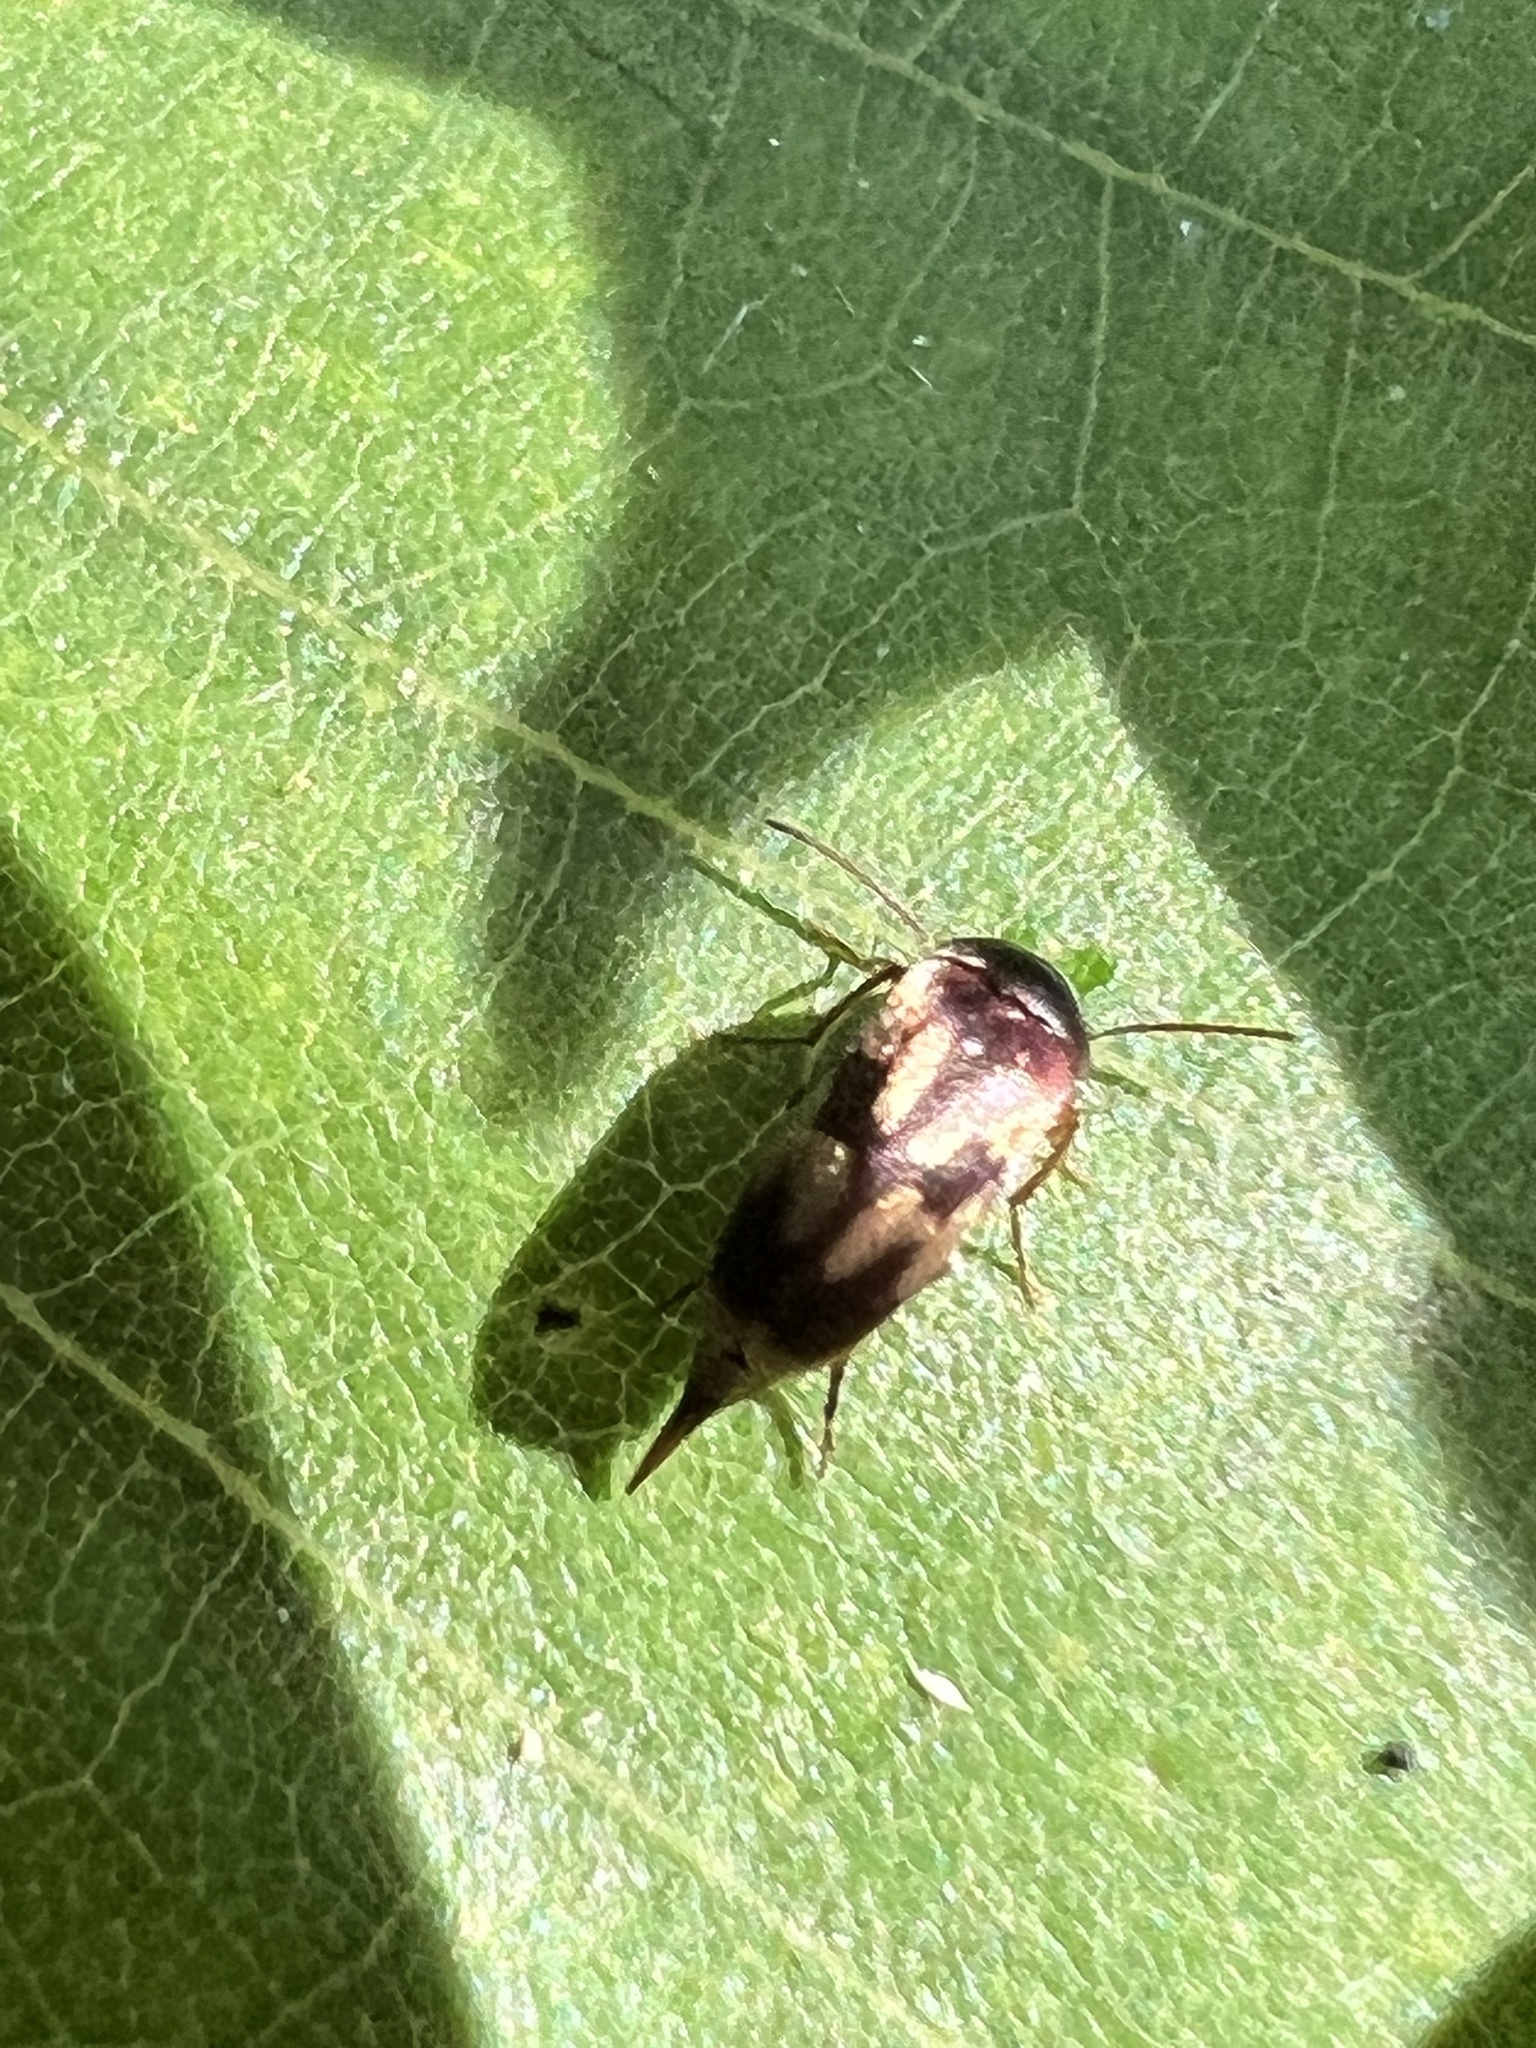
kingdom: Animalia
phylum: Arthropoda
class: Insecta
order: Coleoptera
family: Mordellidae
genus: Falsomordellistena
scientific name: Falsomordellistena bihamata
